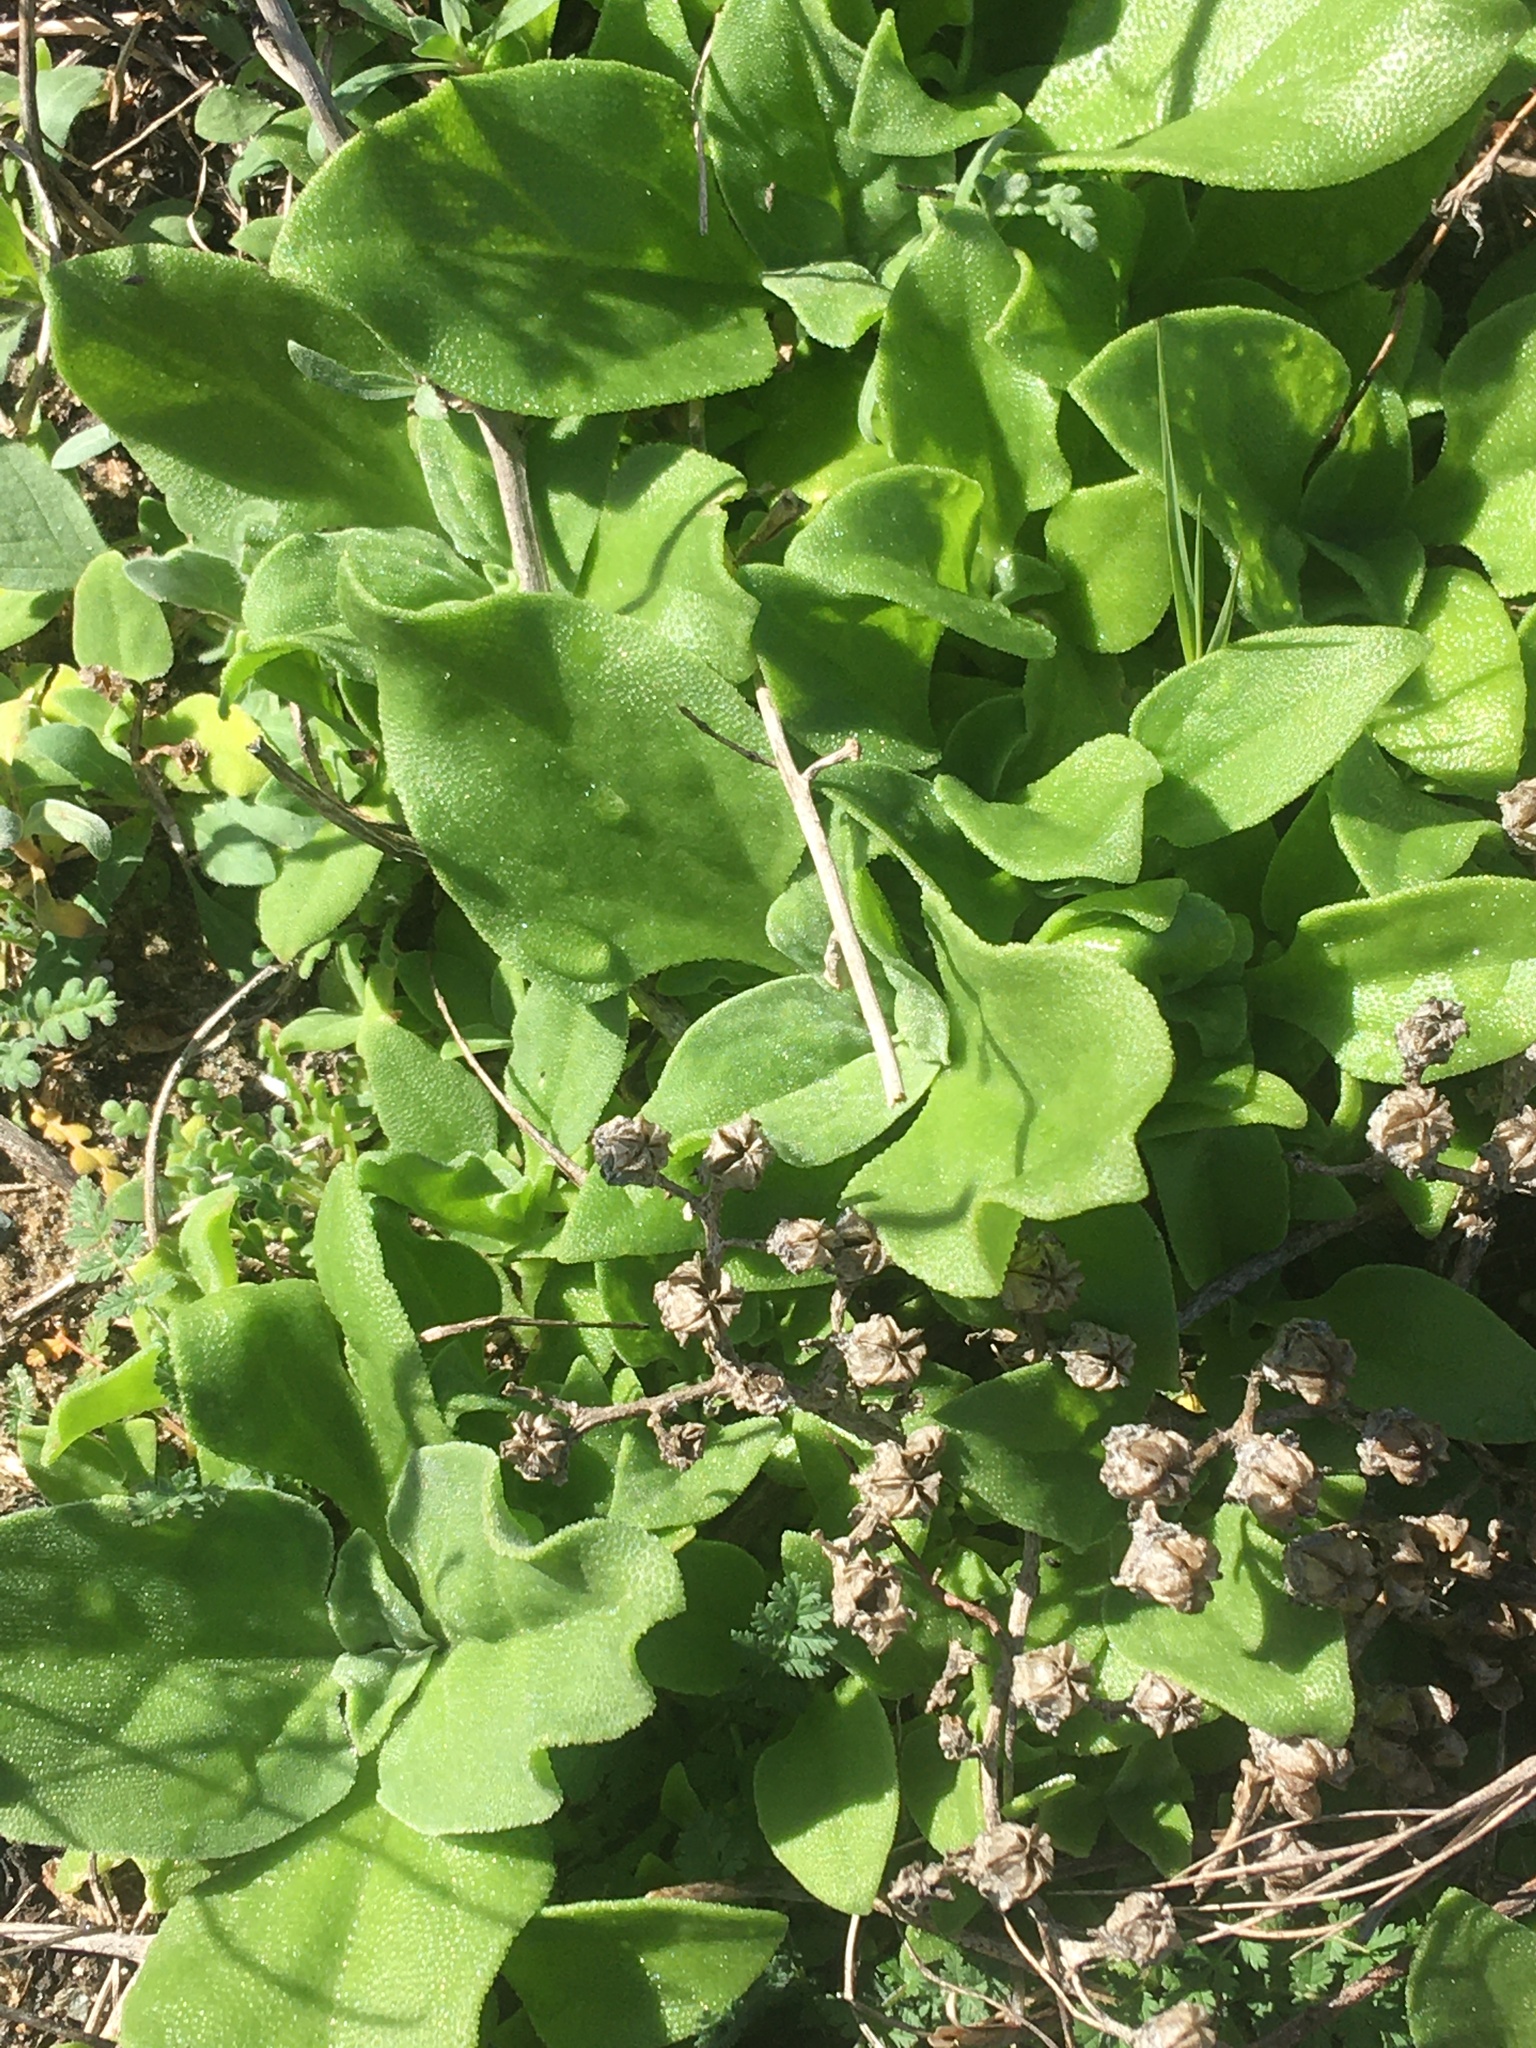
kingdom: Plantae
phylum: Tracheophyta
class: Magnoliopsida
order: Caryophyllales
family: Aizoaceae
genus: Mesembryanthemum
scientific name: Mesembryanthemum crystallinum
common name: Common iceplant
